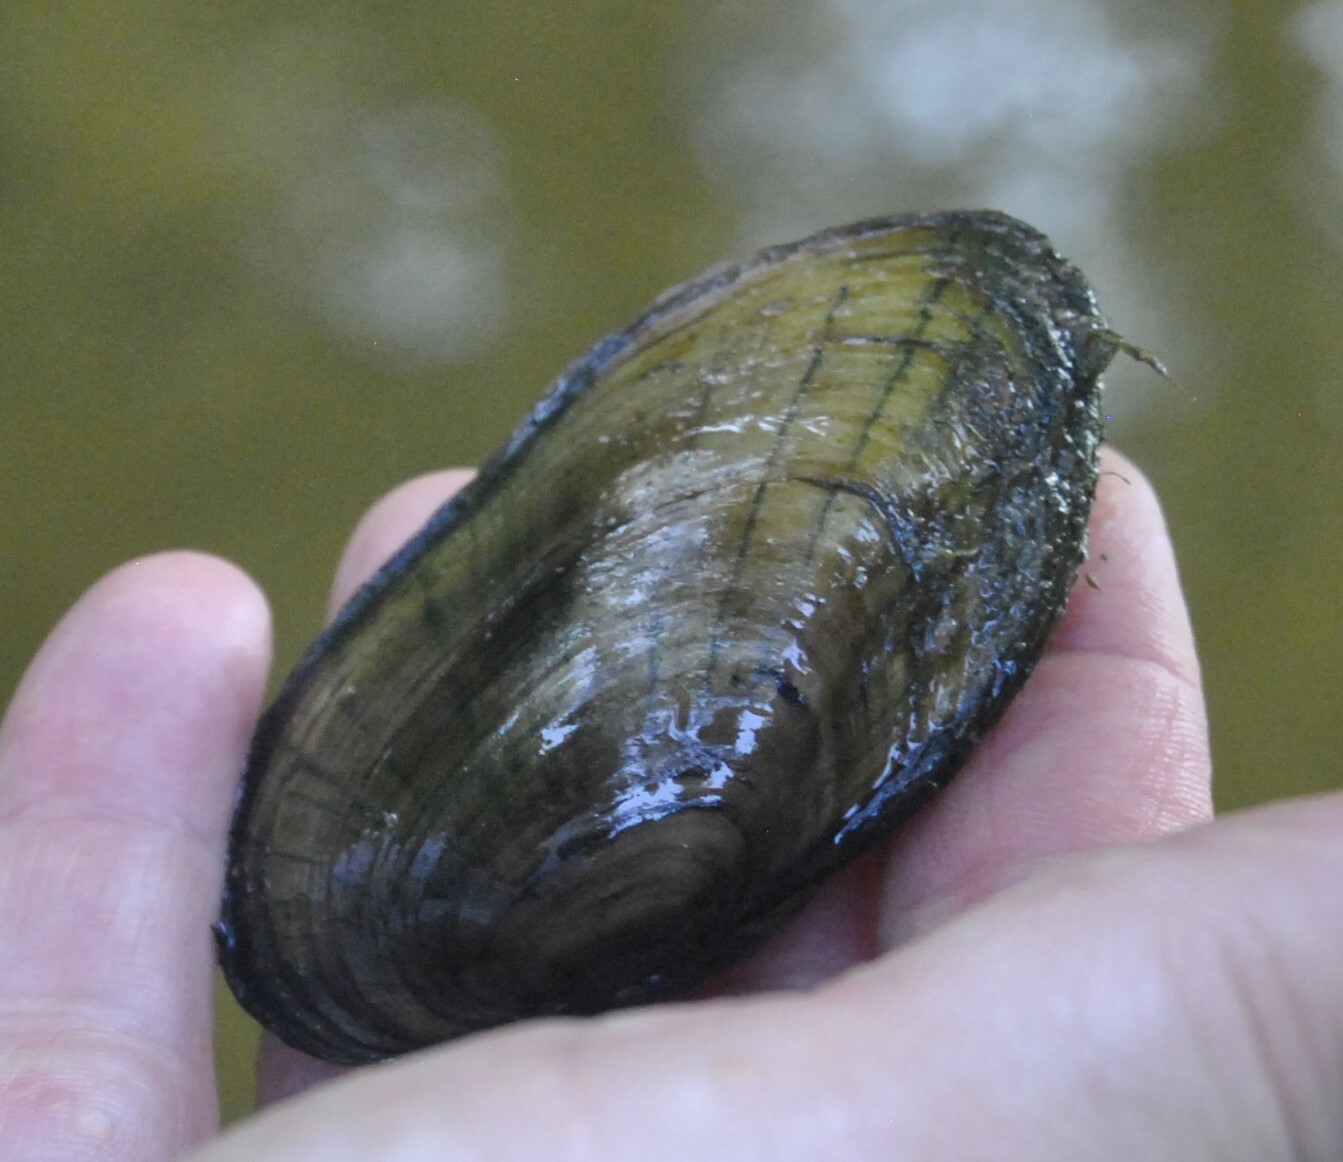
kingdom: Animalia
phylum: Mollusca
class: Bivalvia
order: Unionida
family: Unionidae
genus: Lampsilis
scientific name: Lampsilis siliquoidea
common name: Fatmucket
